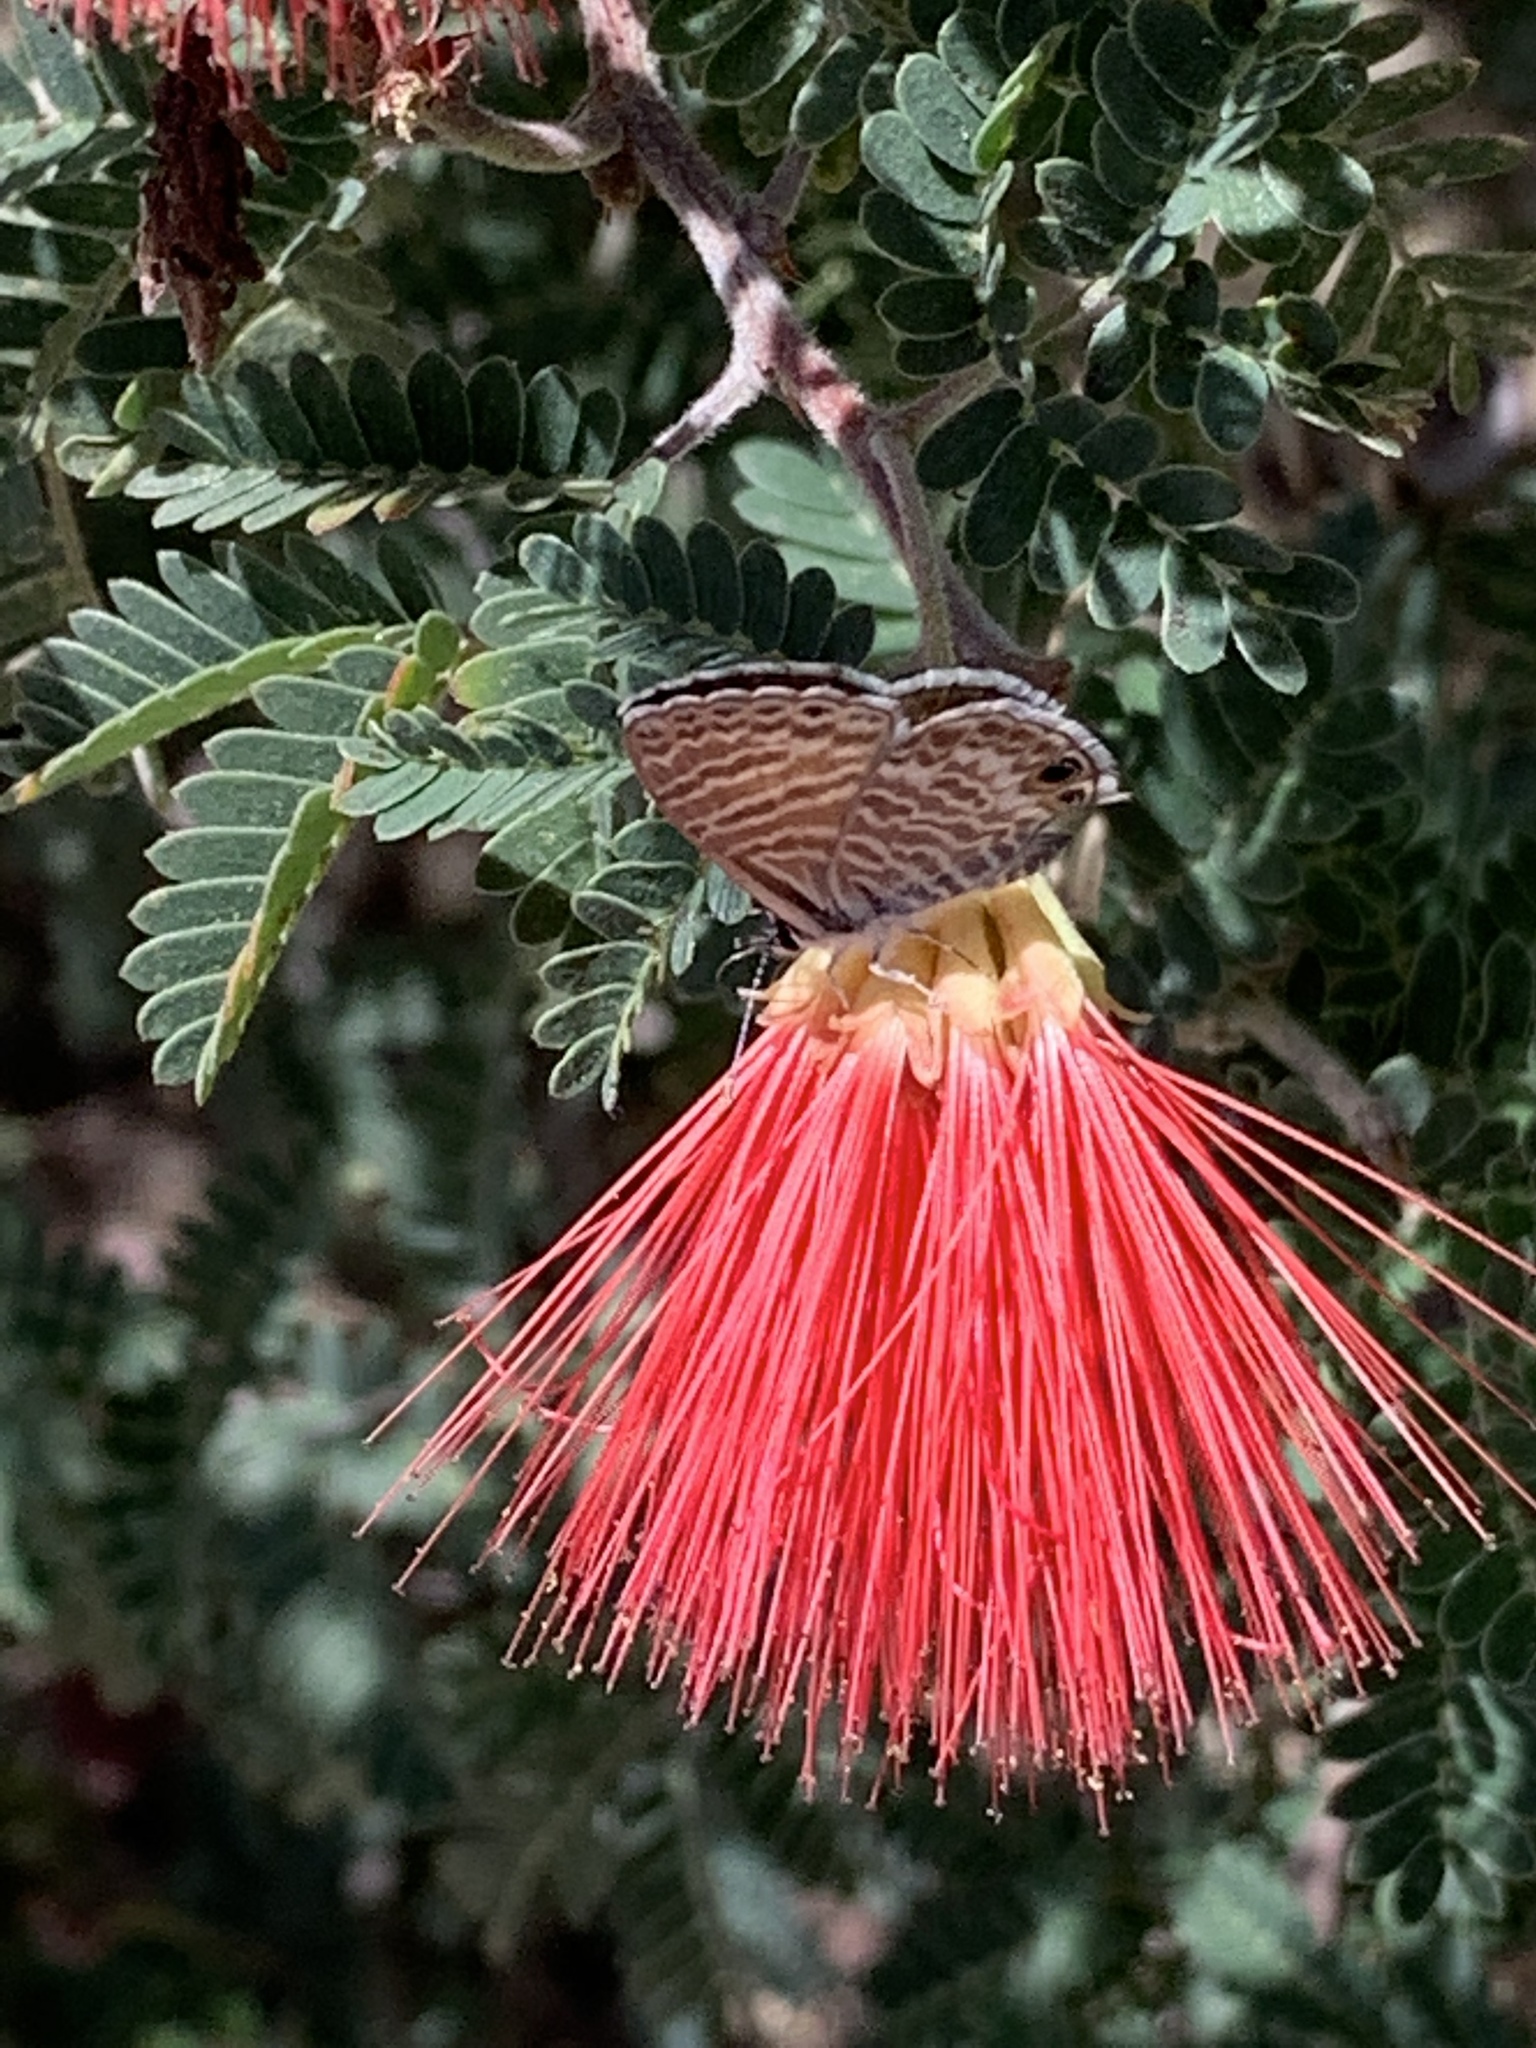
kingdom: Animalia
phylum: Arthropoda
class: Insecta
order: Lepidoptera
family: Lycaenidae
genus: Leptotes
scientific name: Leptotes marina
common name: Marine blue
